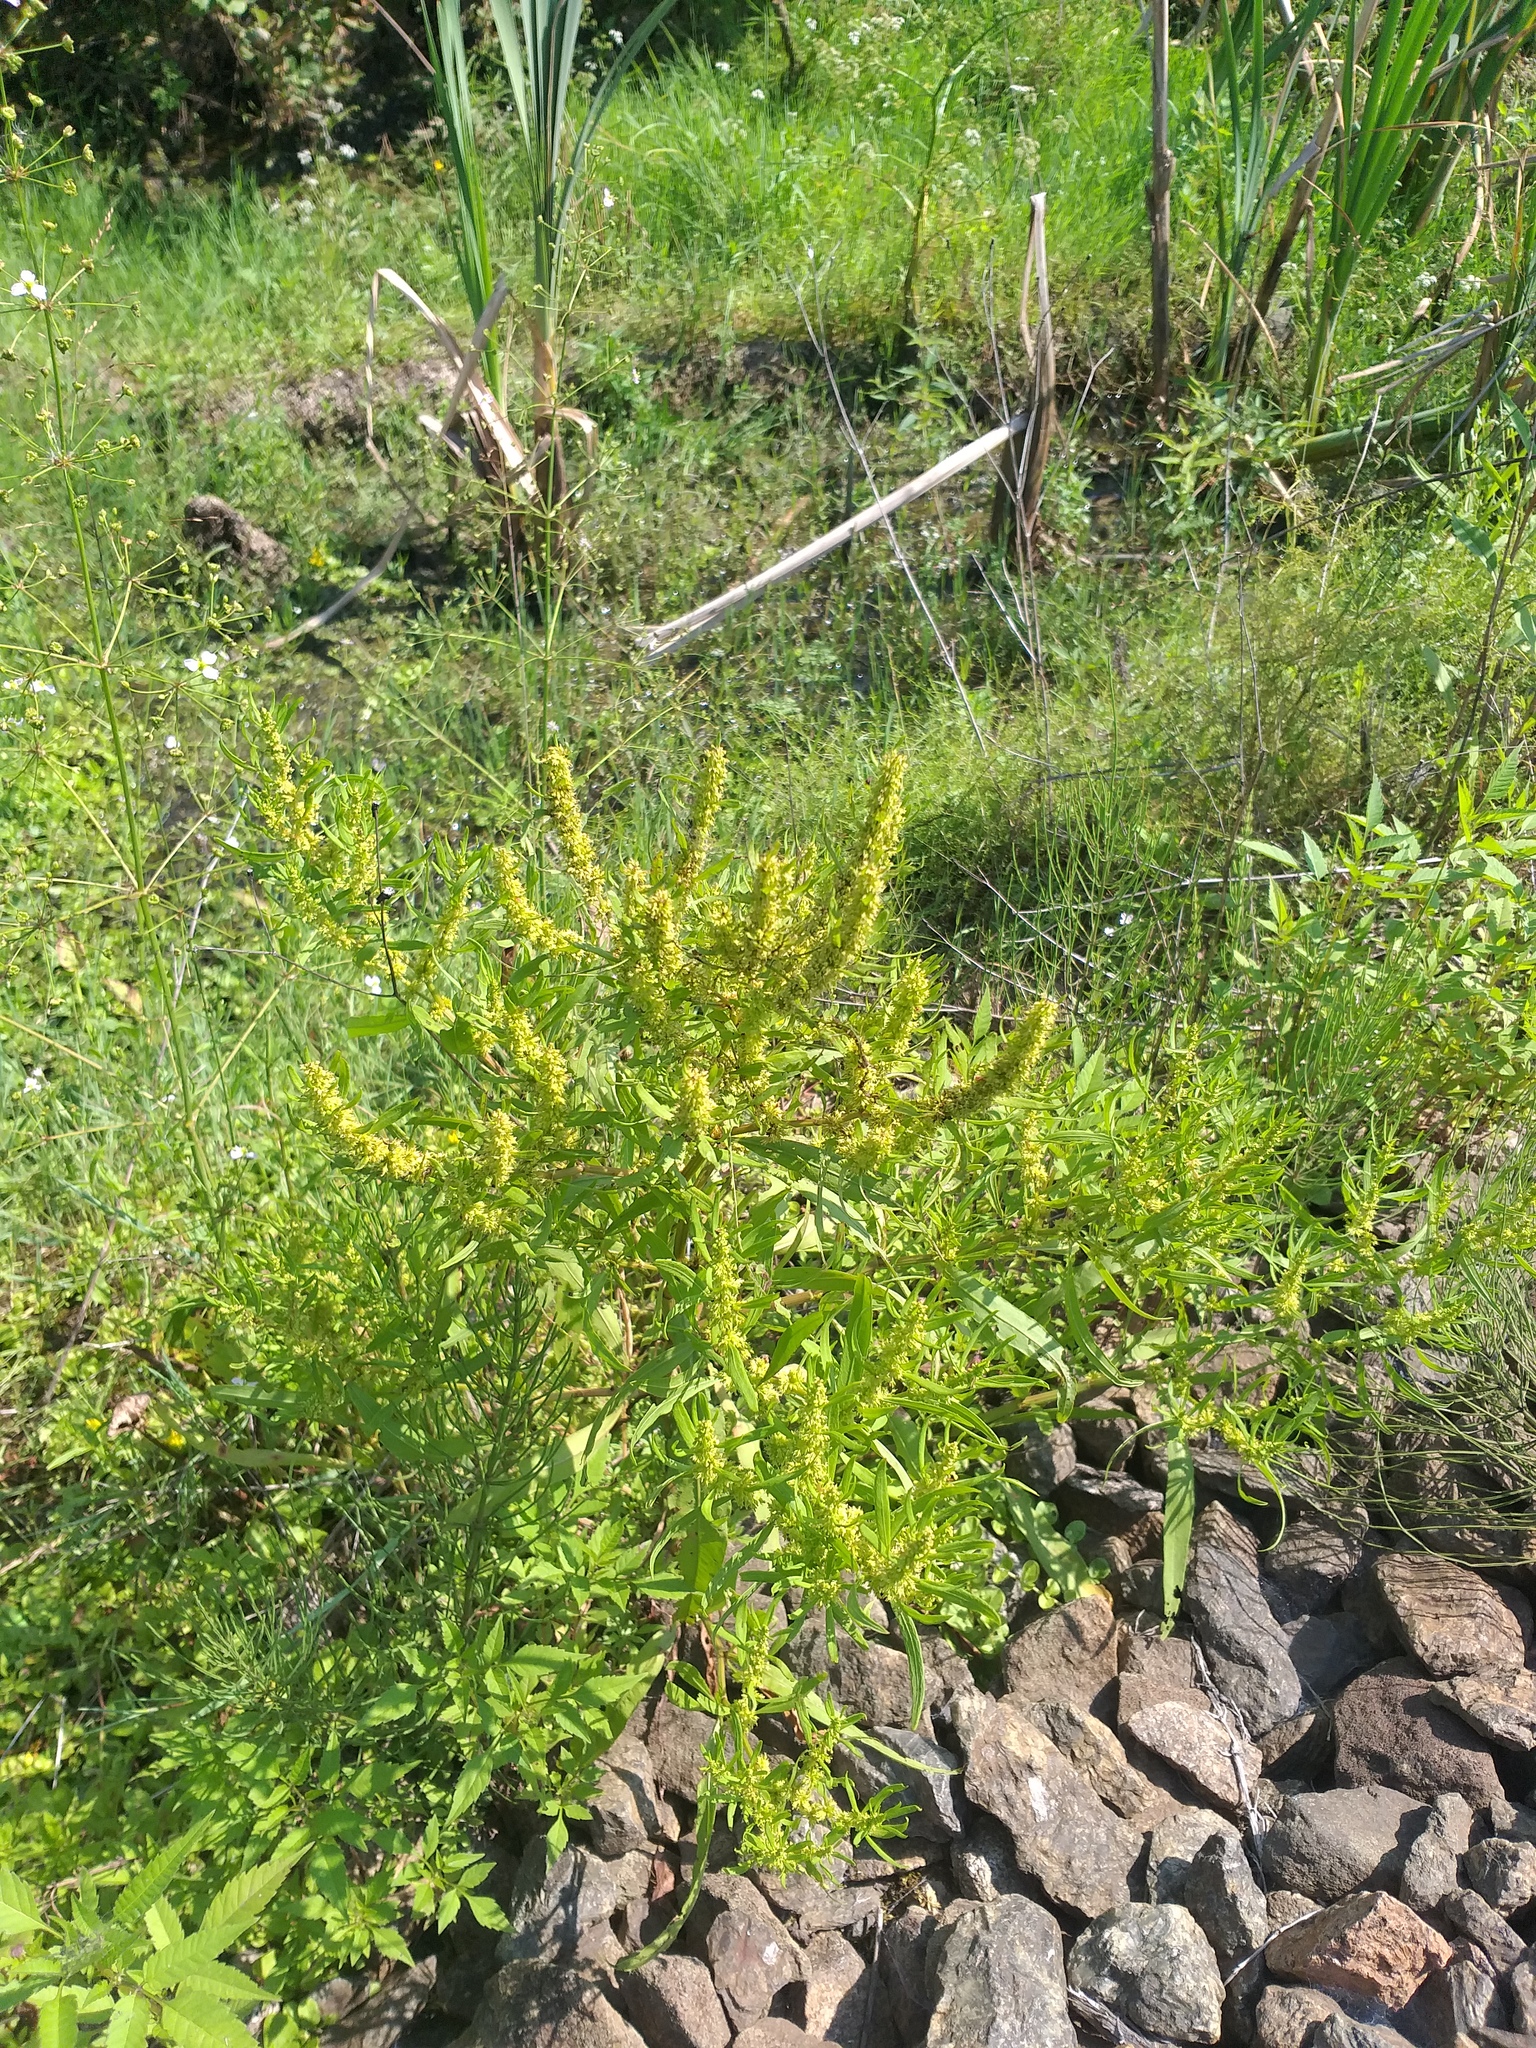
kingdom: Plantae
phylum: Tracheophyta
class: Magnoliopsida
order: Caryophyllales
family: Polygonaceae
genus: Rumex
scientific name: Rumex maritimus
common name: Golden dock
